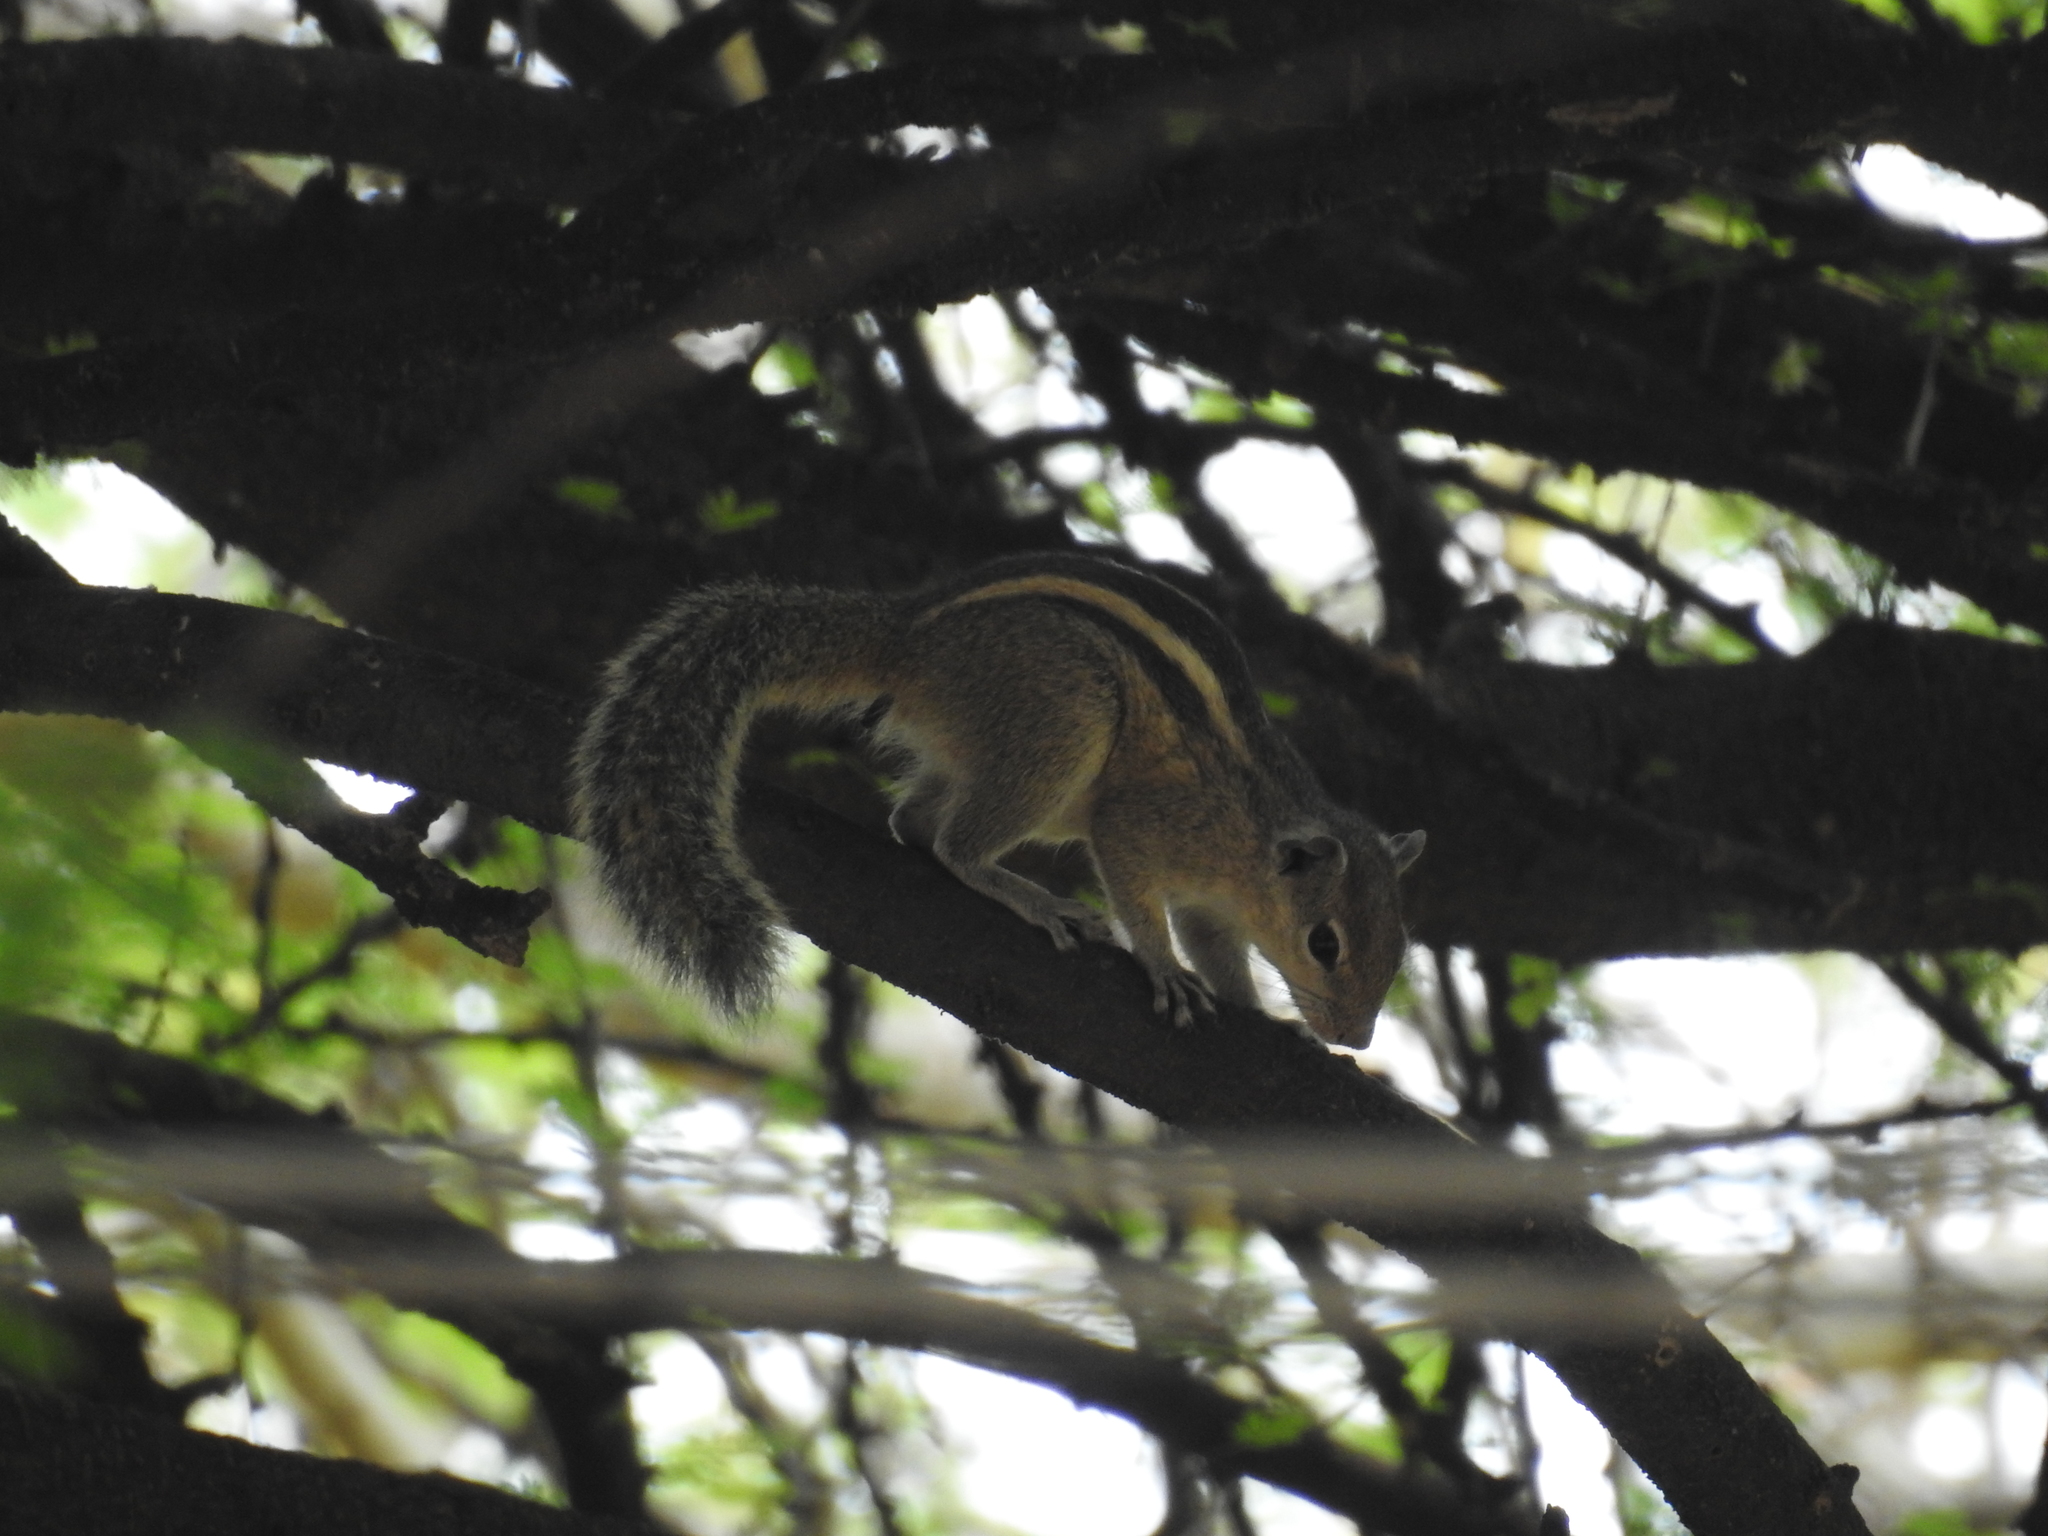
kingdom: Animalia
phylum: Chordata
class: Mammalia
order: Rodentia
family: Sciuridae
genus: Funambulus
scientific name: Funambulus palmarum
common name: Indian palm squirrel
